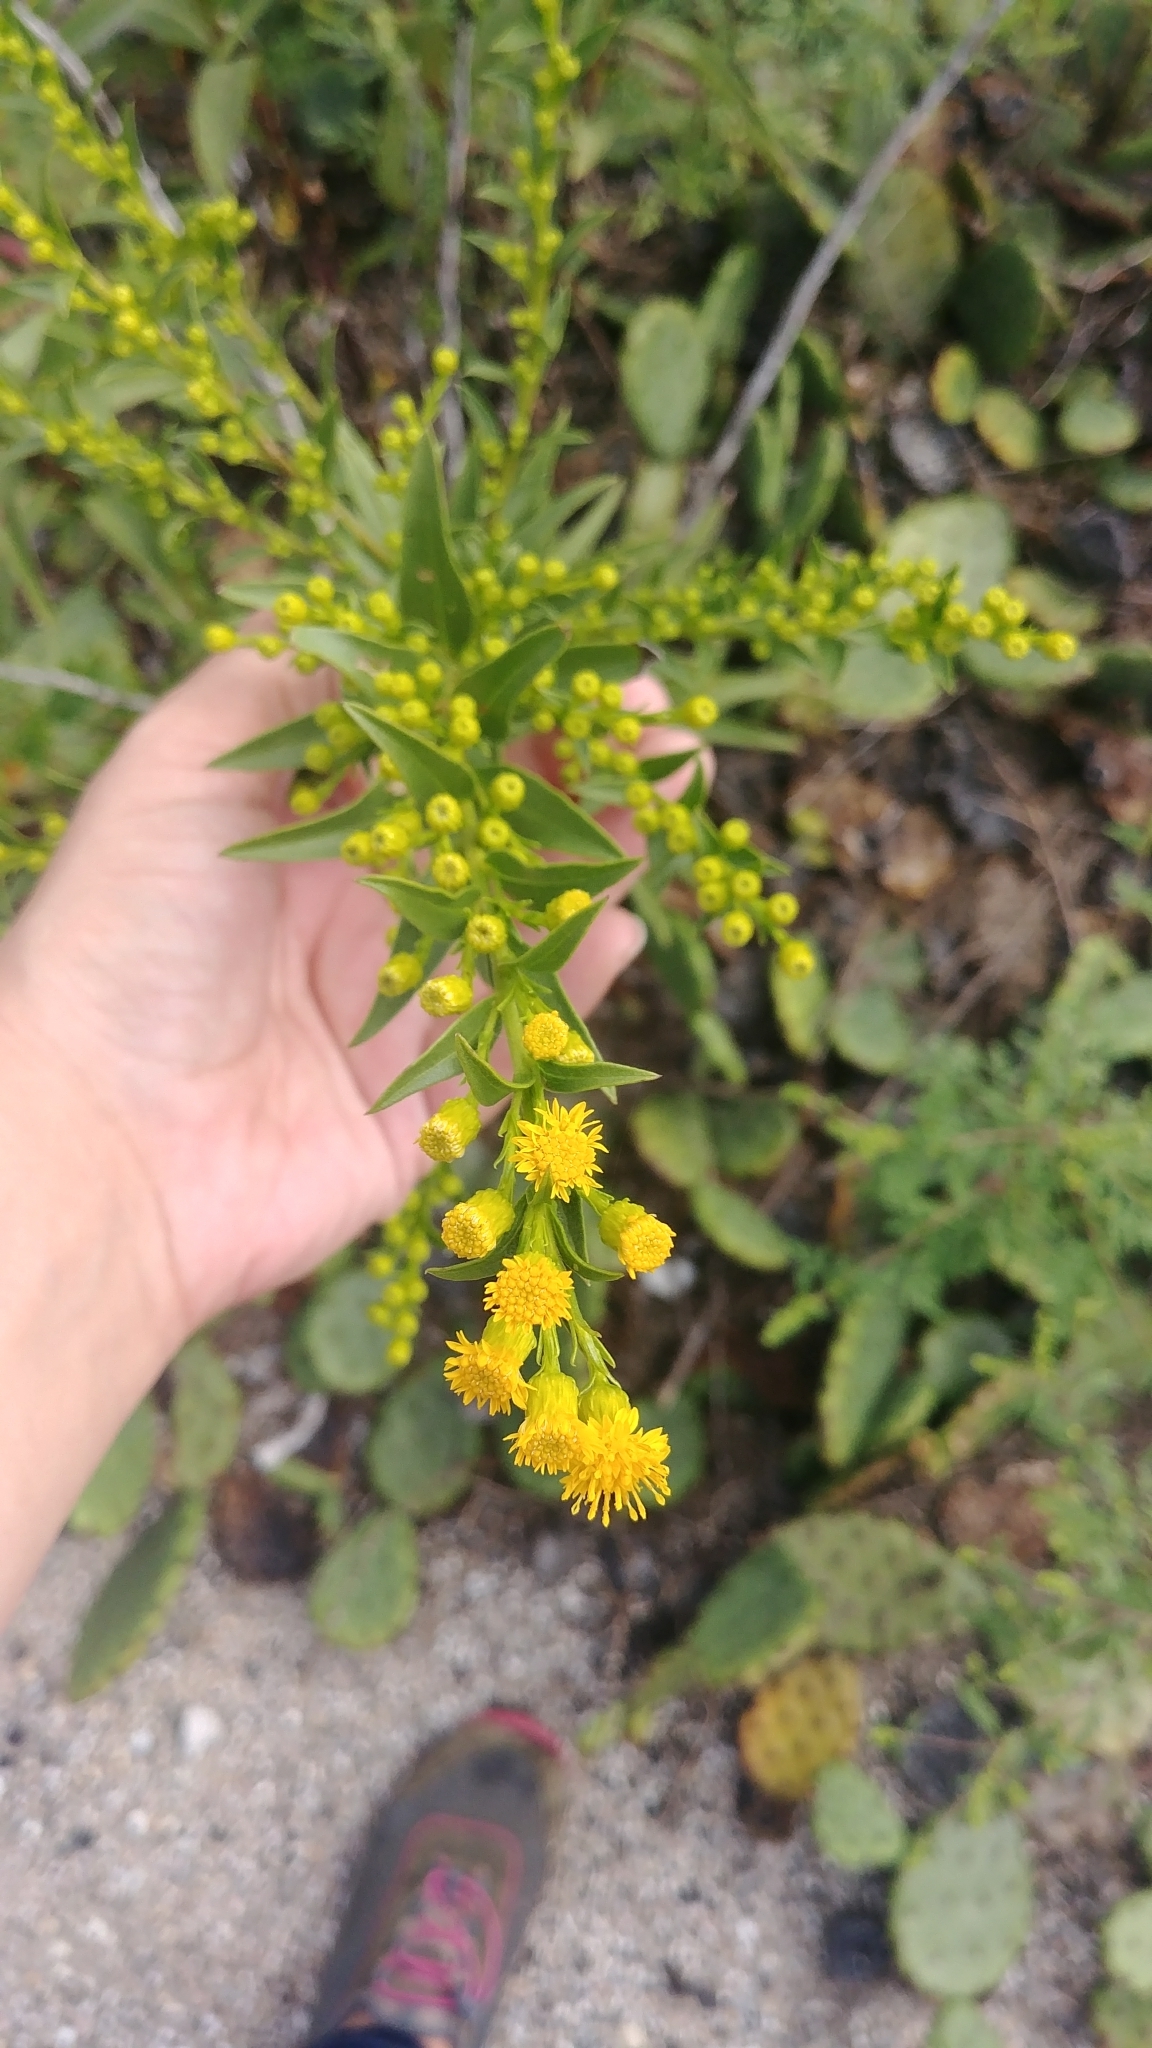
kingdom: Plantae
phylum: Tracheophyta
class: Magnoliopsida
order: Asterales
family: Asteraceae
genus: Solidago
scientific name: Solidago sempervirens
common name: Salt-marsh goldenrod
